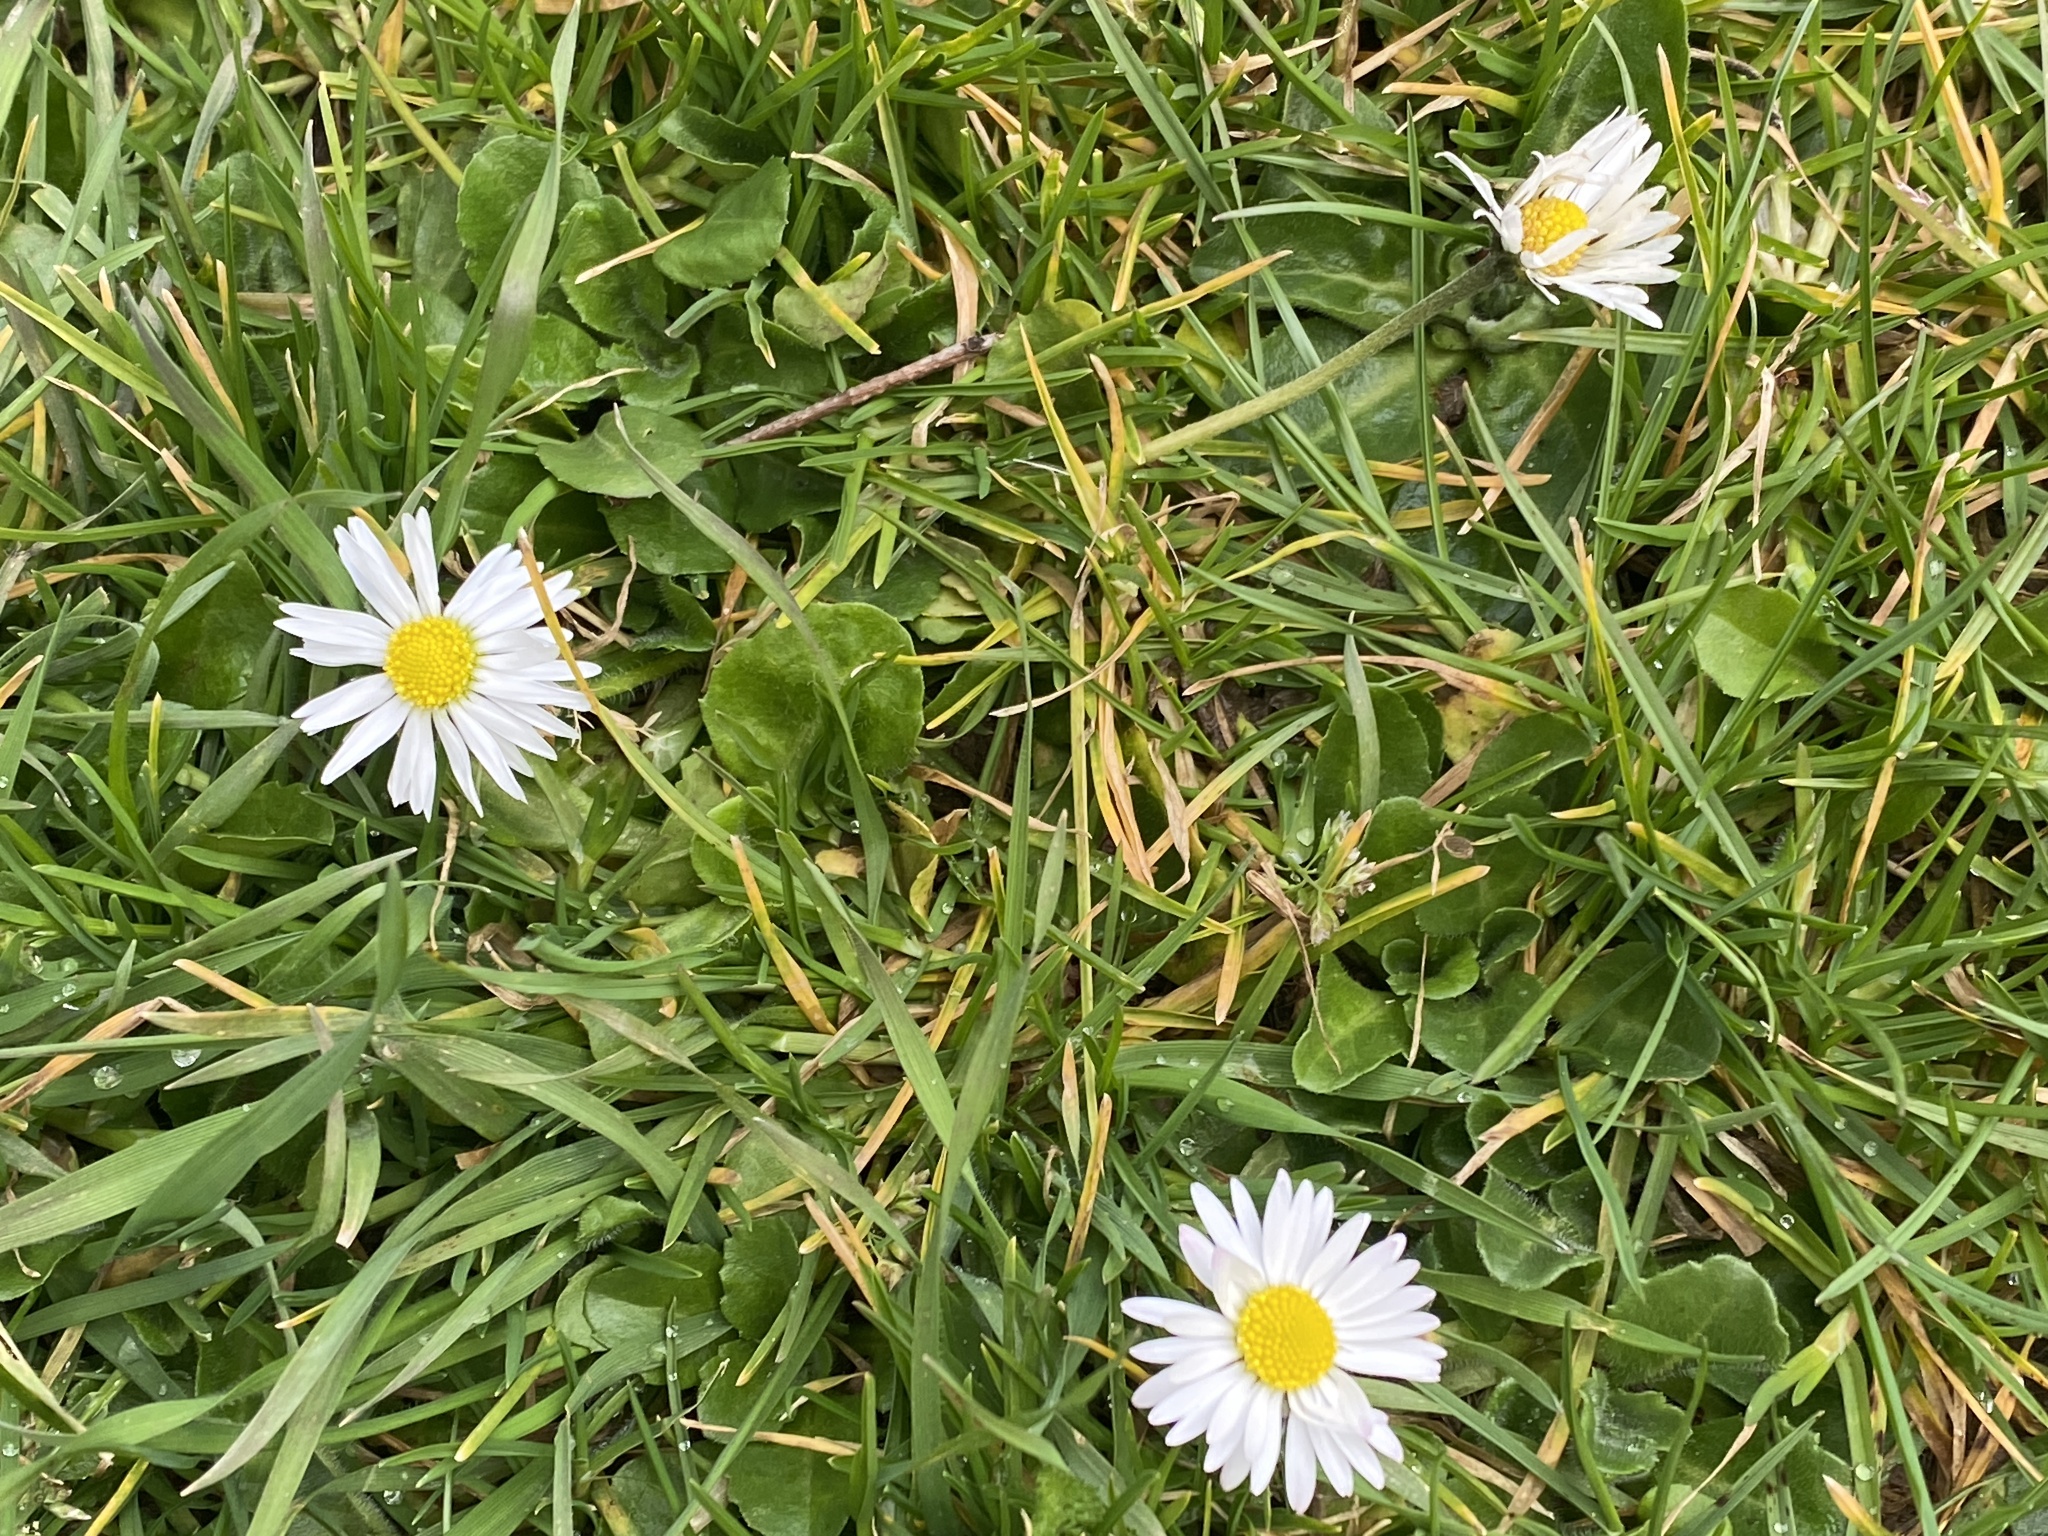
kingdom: Plantae
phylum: Tracheophyta
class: Magnoliopsida
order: Asterales
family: Asteraceae
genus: Bellis
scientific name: Bellis perennis
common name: Lawndaisy
